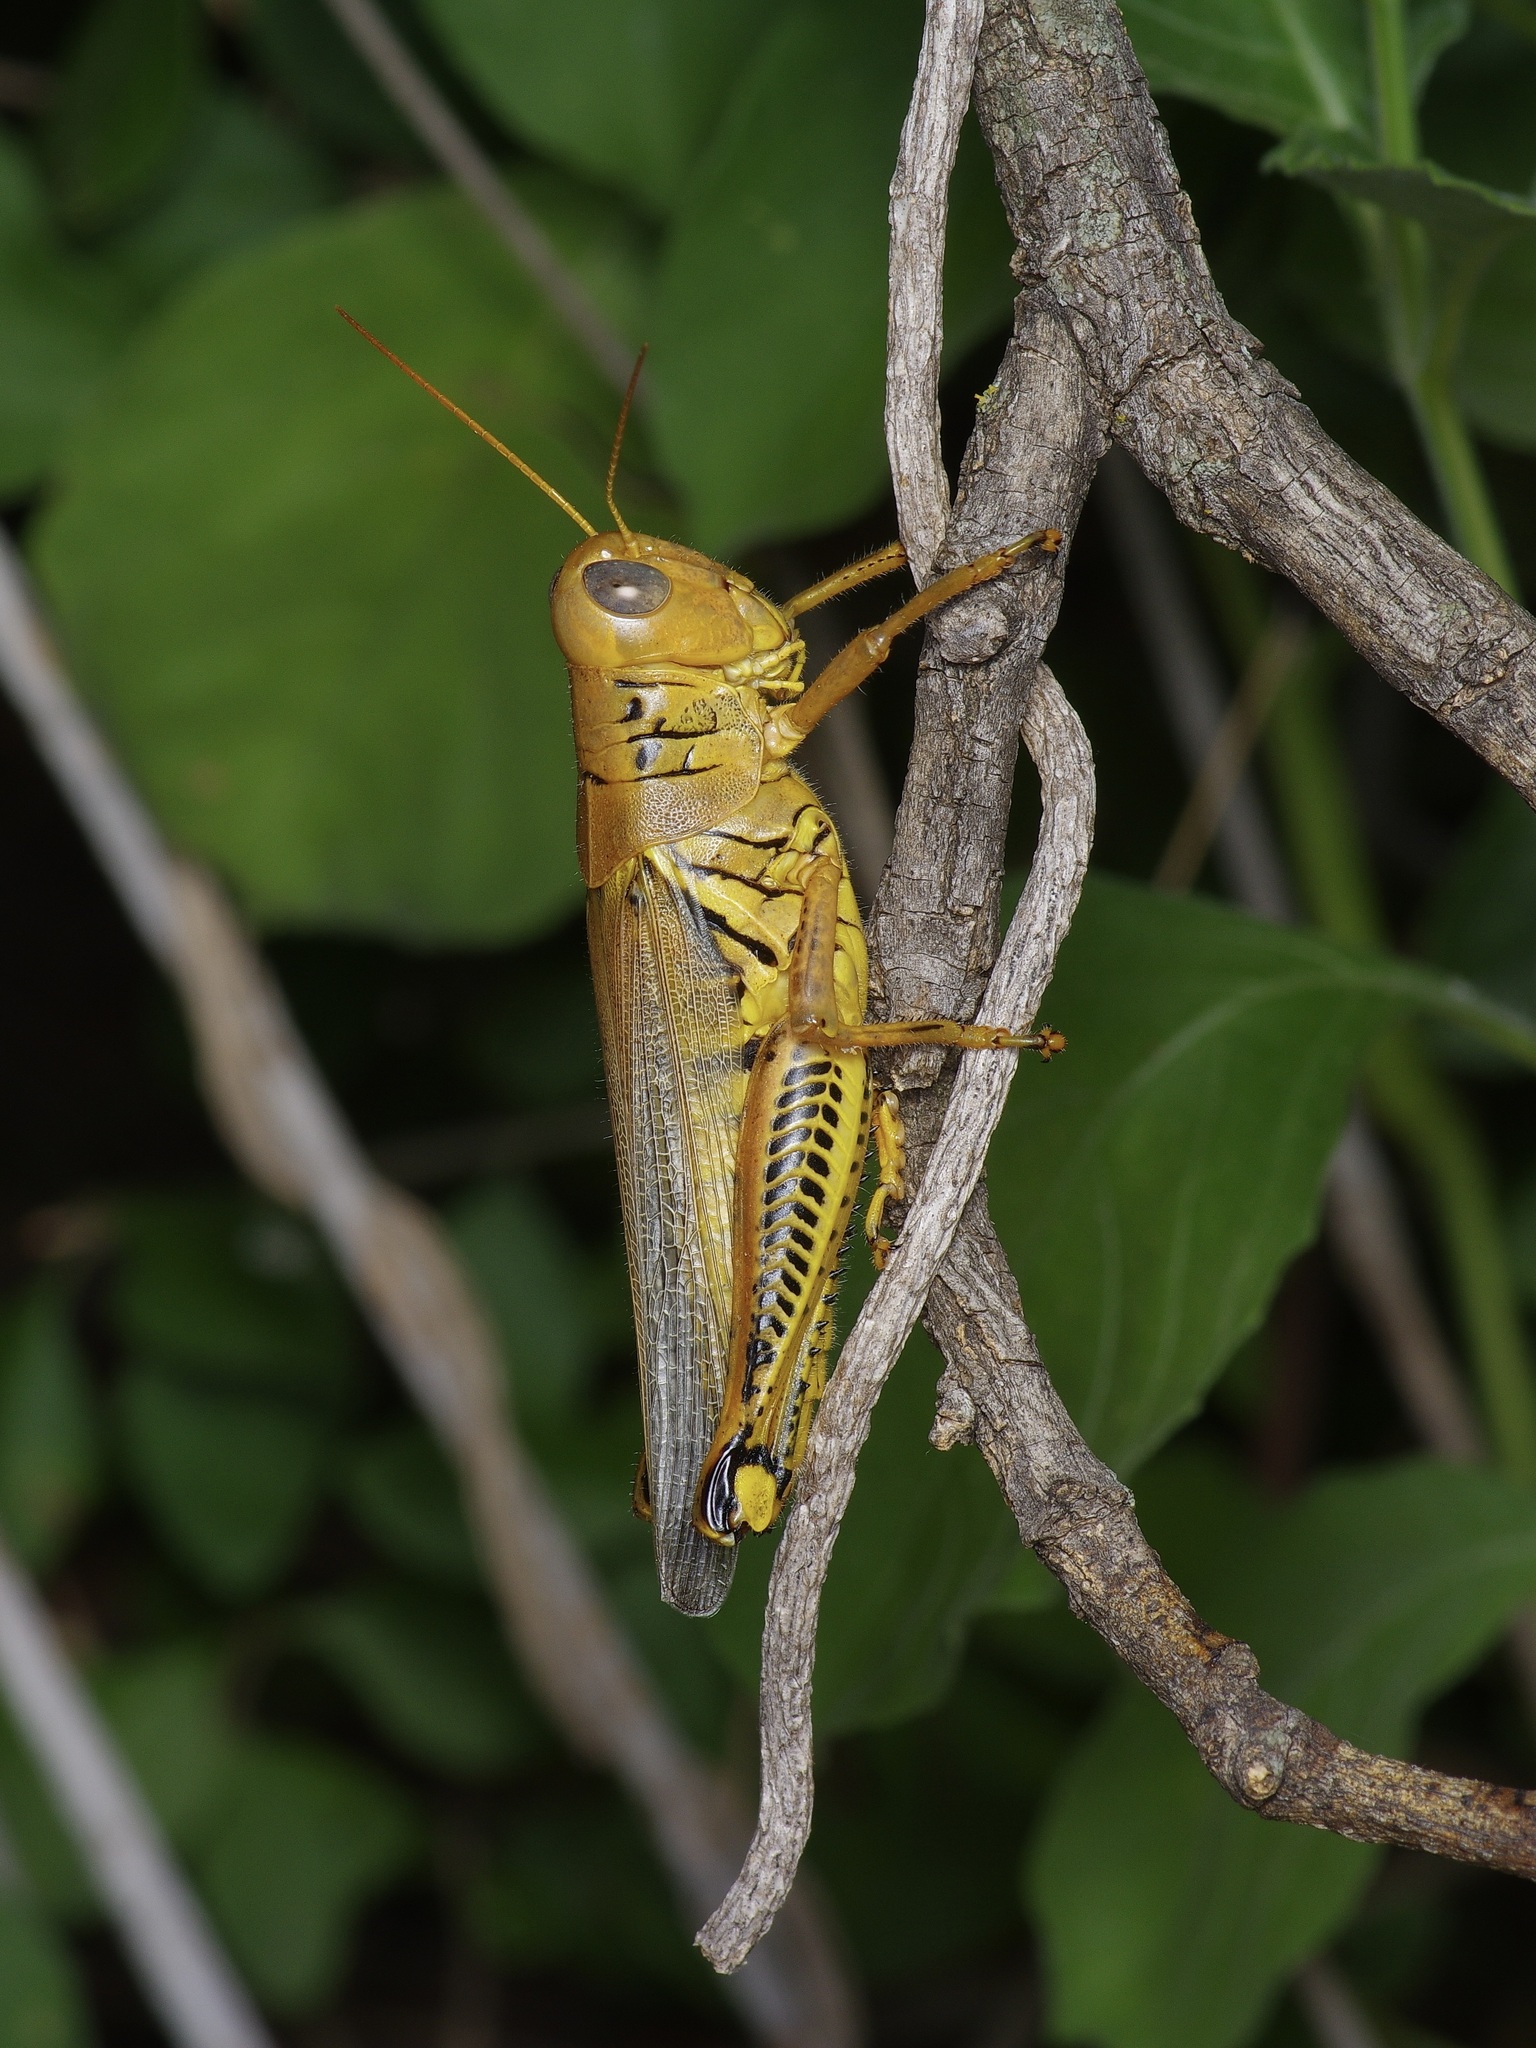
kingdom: Animalia
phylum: Arthropoda
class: Insecta
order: Orthoptera
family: Acrididae
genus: Melanoplus
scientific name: Melanoplus differentialis
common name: Differential grasshopper
